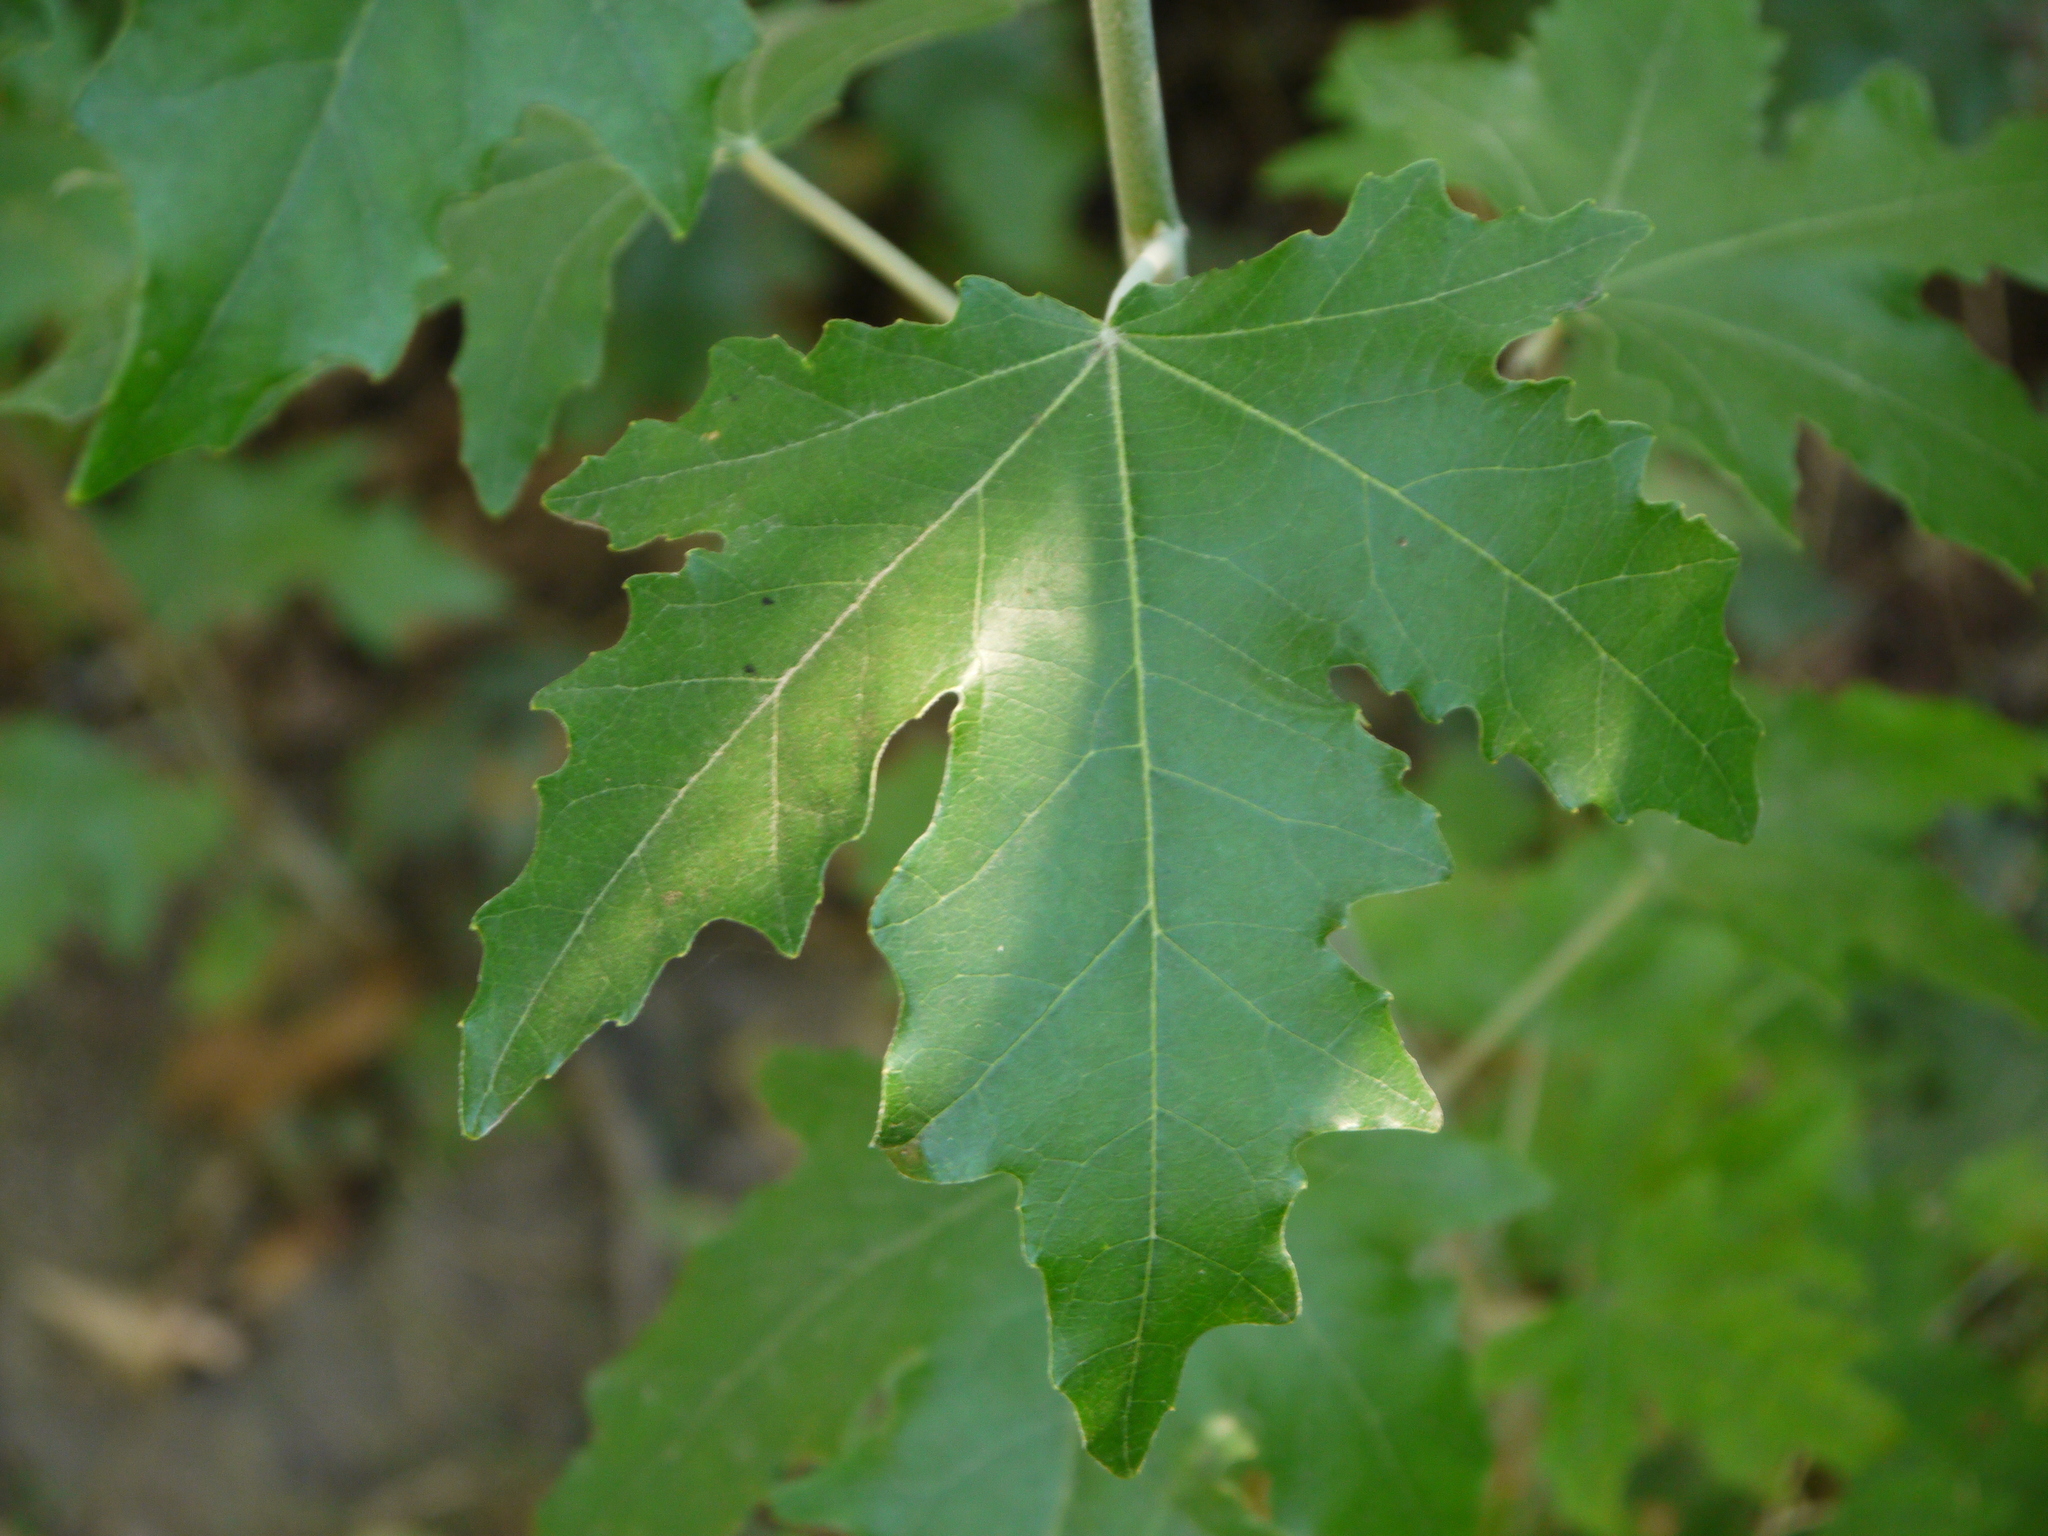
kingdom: Plantae
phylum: Tracheophyta
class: Magnoliopsida
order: Sapindales
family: Sapindaceae
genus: Acer
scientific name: Acer saccharinum
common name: Silver maple
